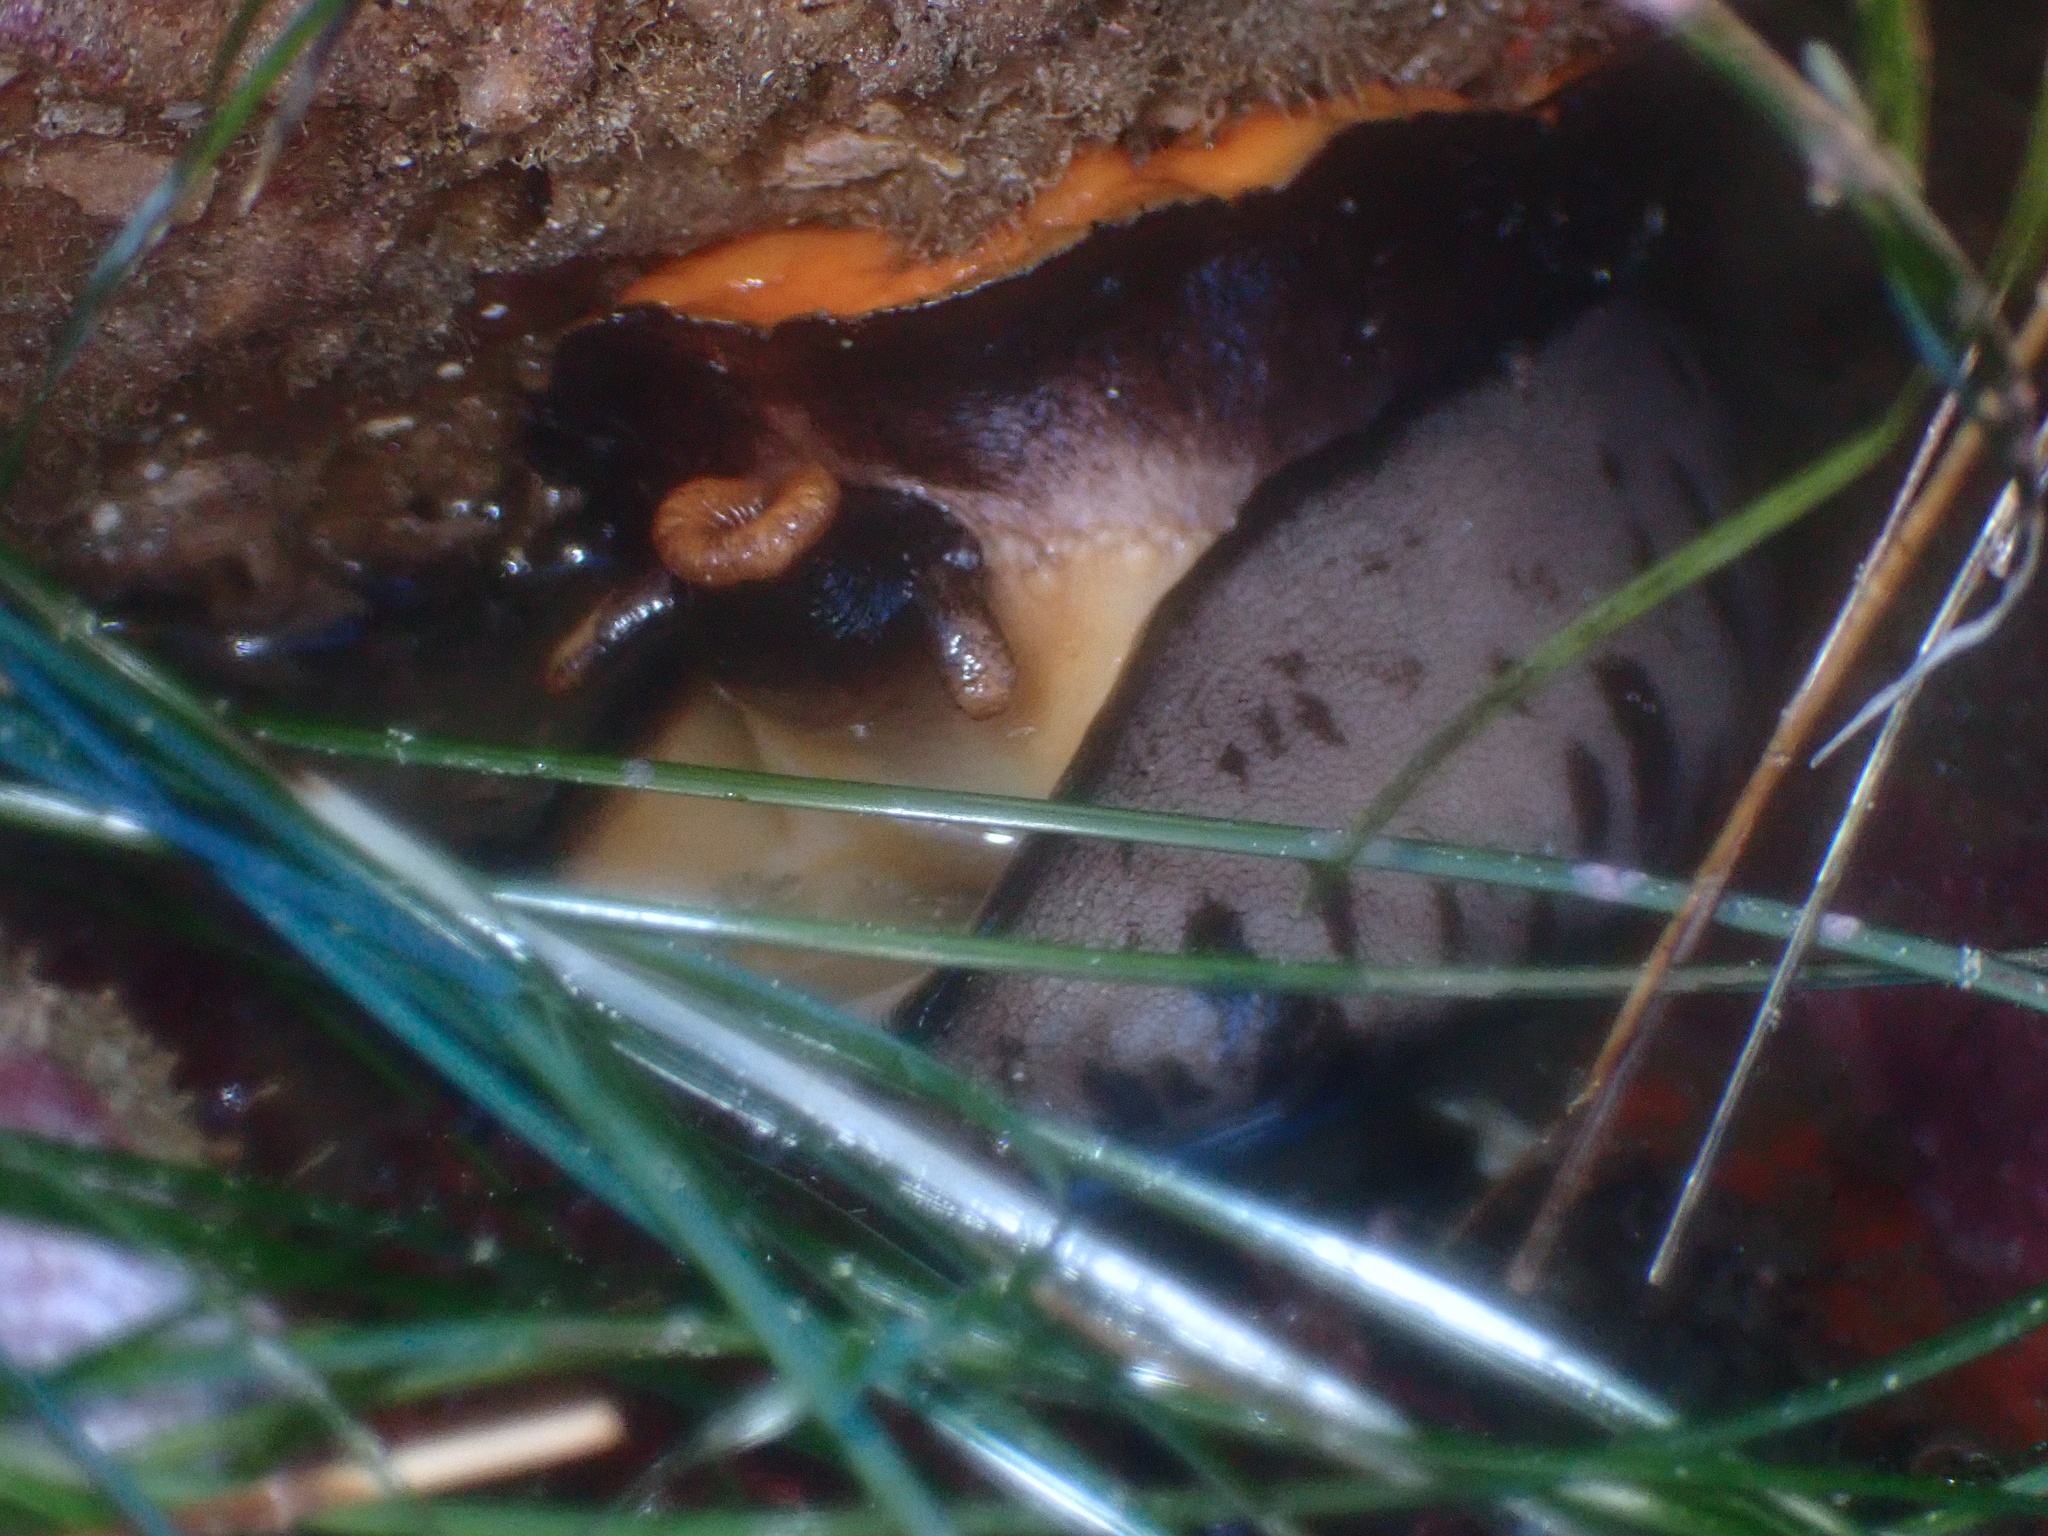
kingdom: Animalia
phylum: Mollusca
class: Gastropoda
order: Lepetellida
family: Fissurellidae
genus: Megathura
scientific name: Megathura crenulata
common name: Giant keyhole limpet
